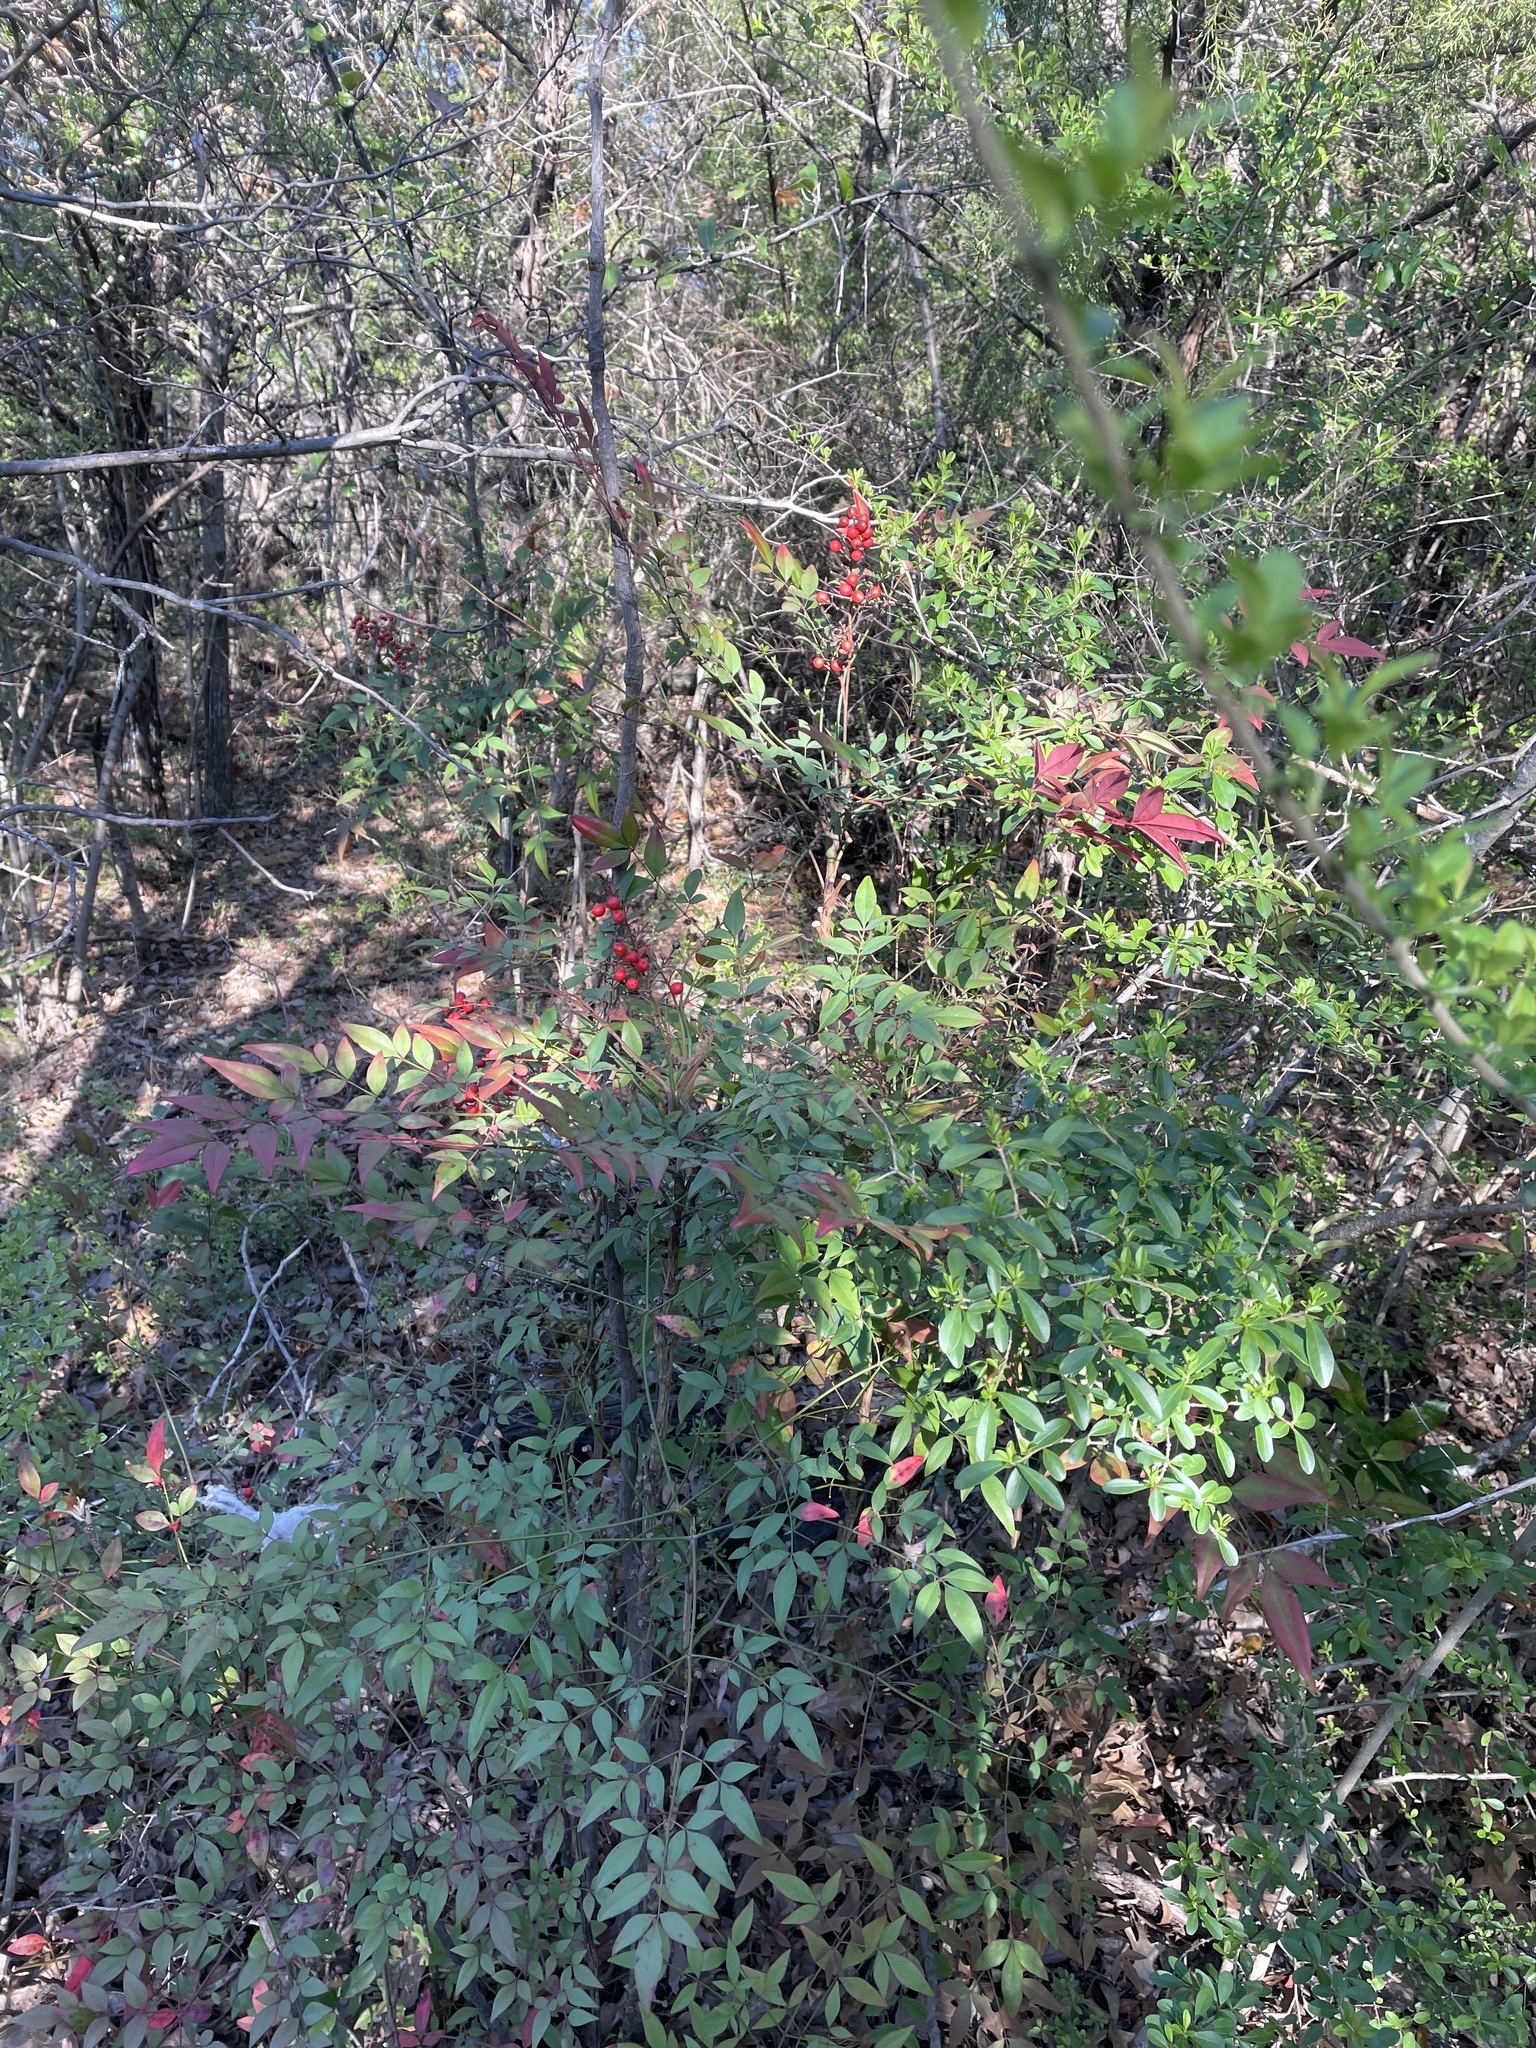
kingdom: Plantae
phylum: Tracheophyta
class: Magnoliopsida
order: Ranunculales
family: Berberidaceae
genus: Nandina
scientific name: Nandina domestica
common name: Sacred bamboo
